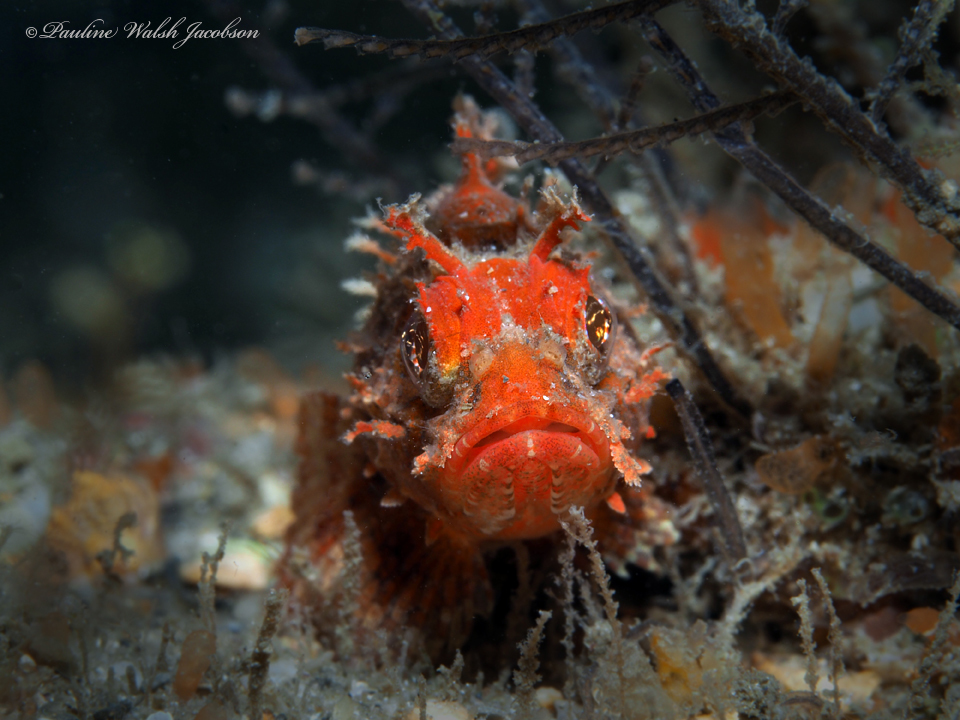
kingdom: Animalia
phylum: Chordata
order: Scorpaeniformes
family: Scorpaenidae
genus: Scorpaena
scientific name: Scorpaena brasiliensis
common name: Barbfish
